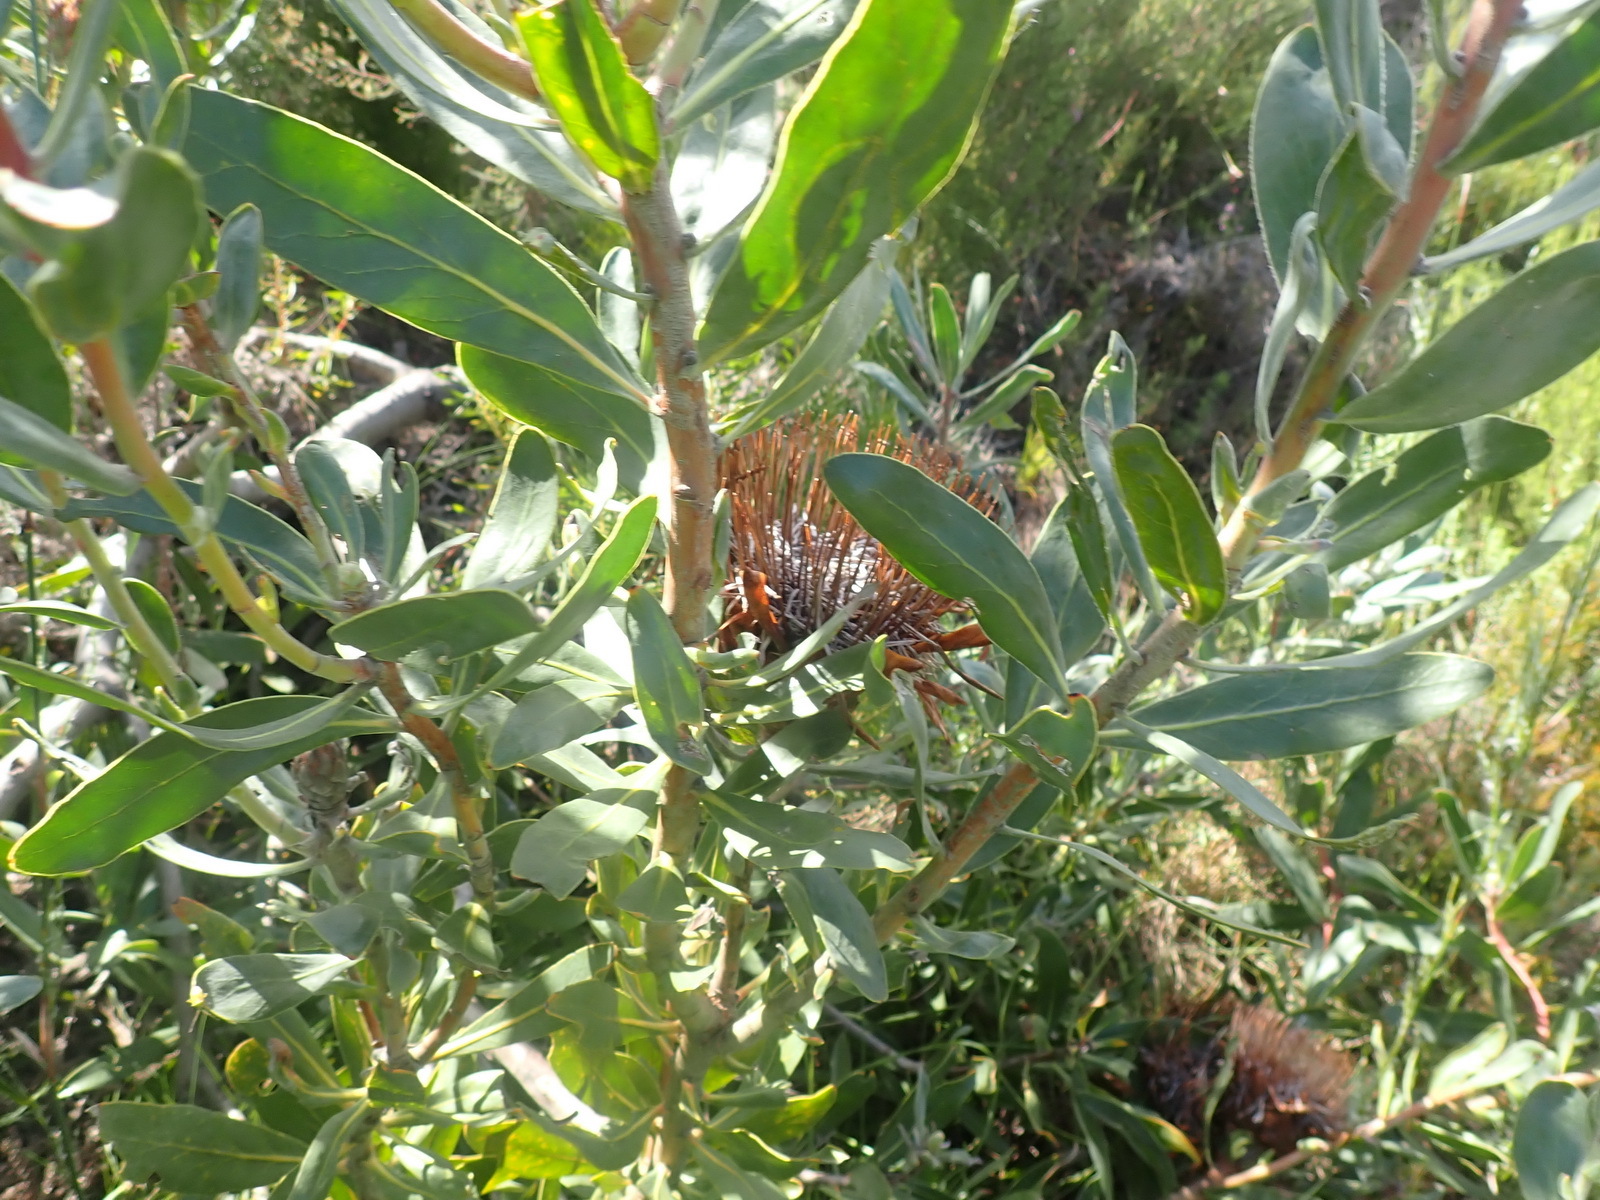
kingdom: Plantae
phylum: Tracheophyta
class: Magnoliopsida
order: Proteales
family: Proteaceae
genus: Protea
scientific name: Protea susannae
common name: Foetid-leaf sugarbush
